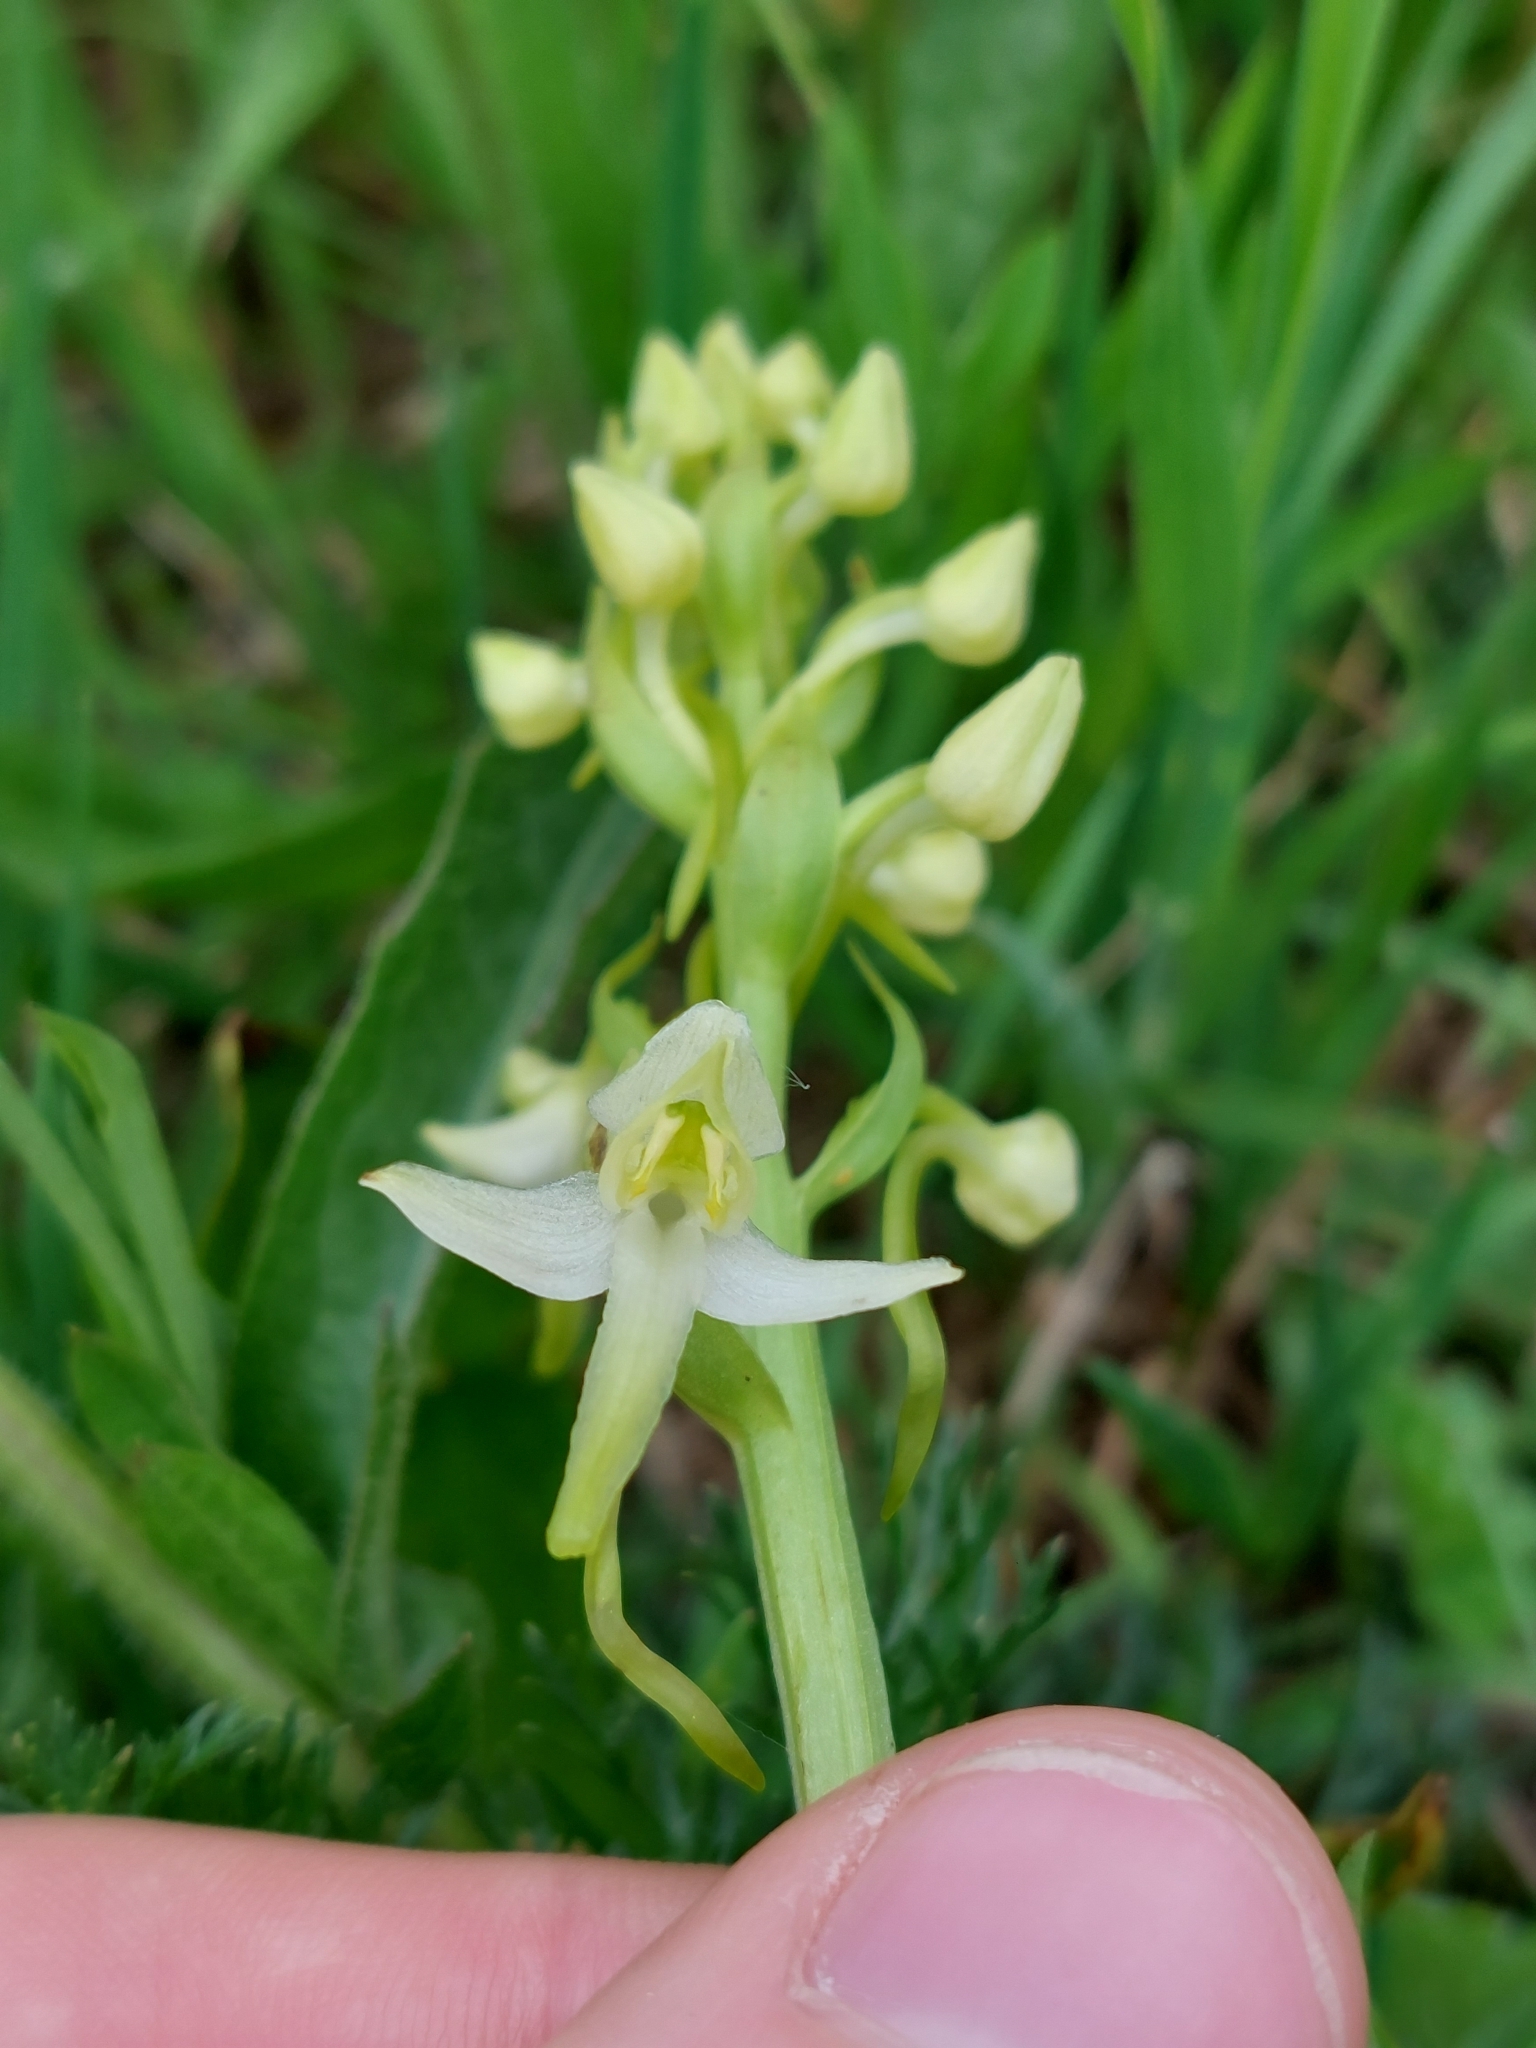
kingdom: Plantae
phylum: Tracheophyta
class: Liliopsida
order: Asparagales
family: Orchidaceae
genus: Platanthera
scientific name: Platanthera chlorantha
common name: Greater butterfly-orchid
